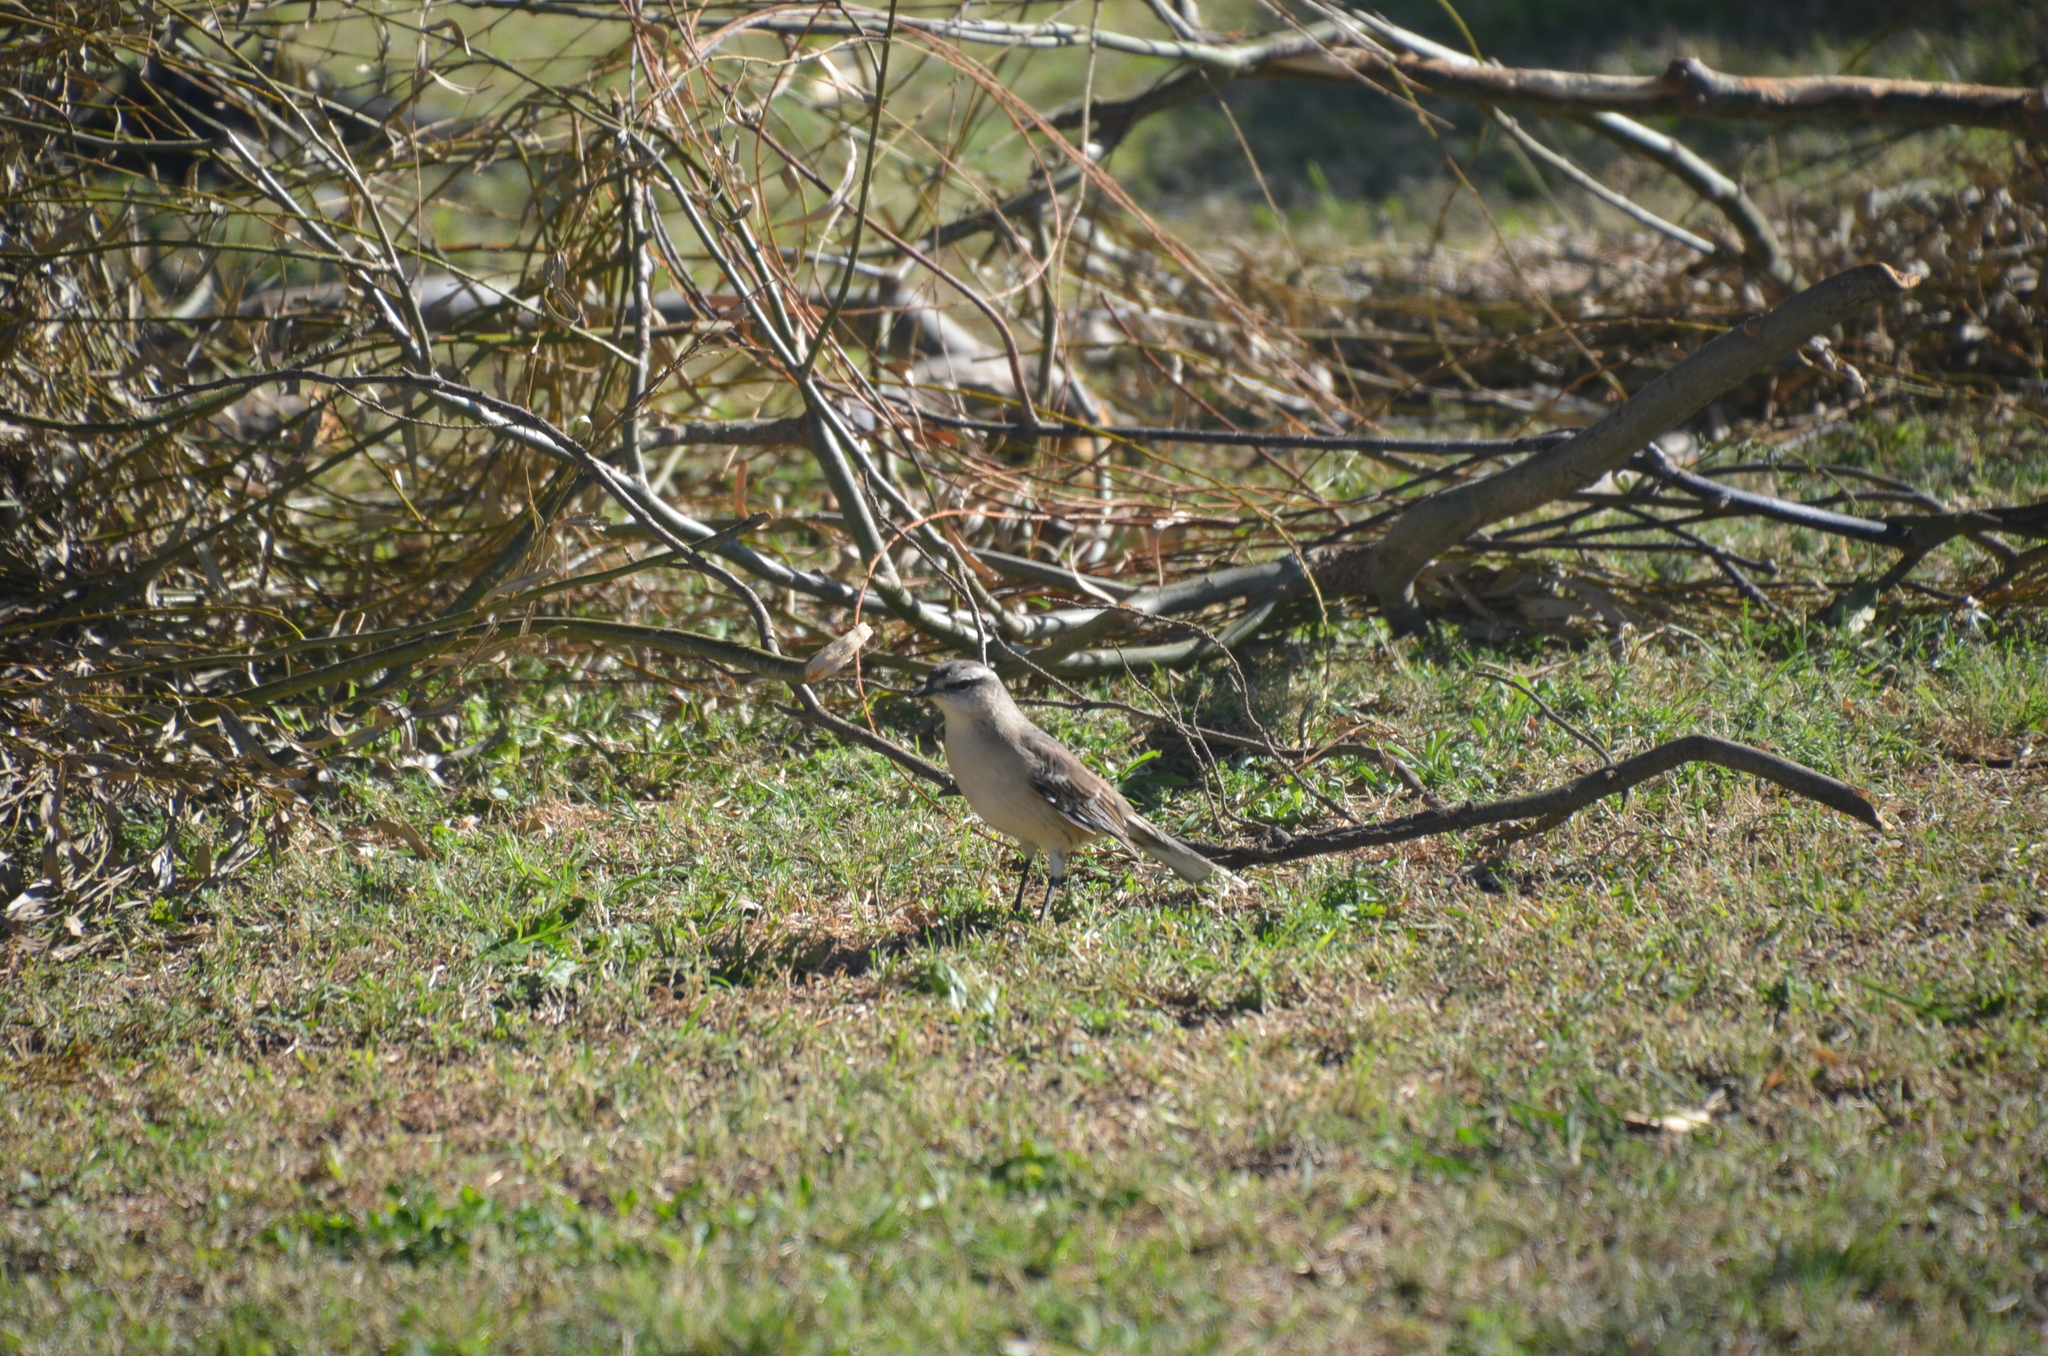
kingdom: Animalia
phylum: Chordata
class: Aves
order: Passeriformes
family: Mimidae
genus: Mimus
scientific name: Mimus saturninus
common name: Chalk-browed mockingbird
